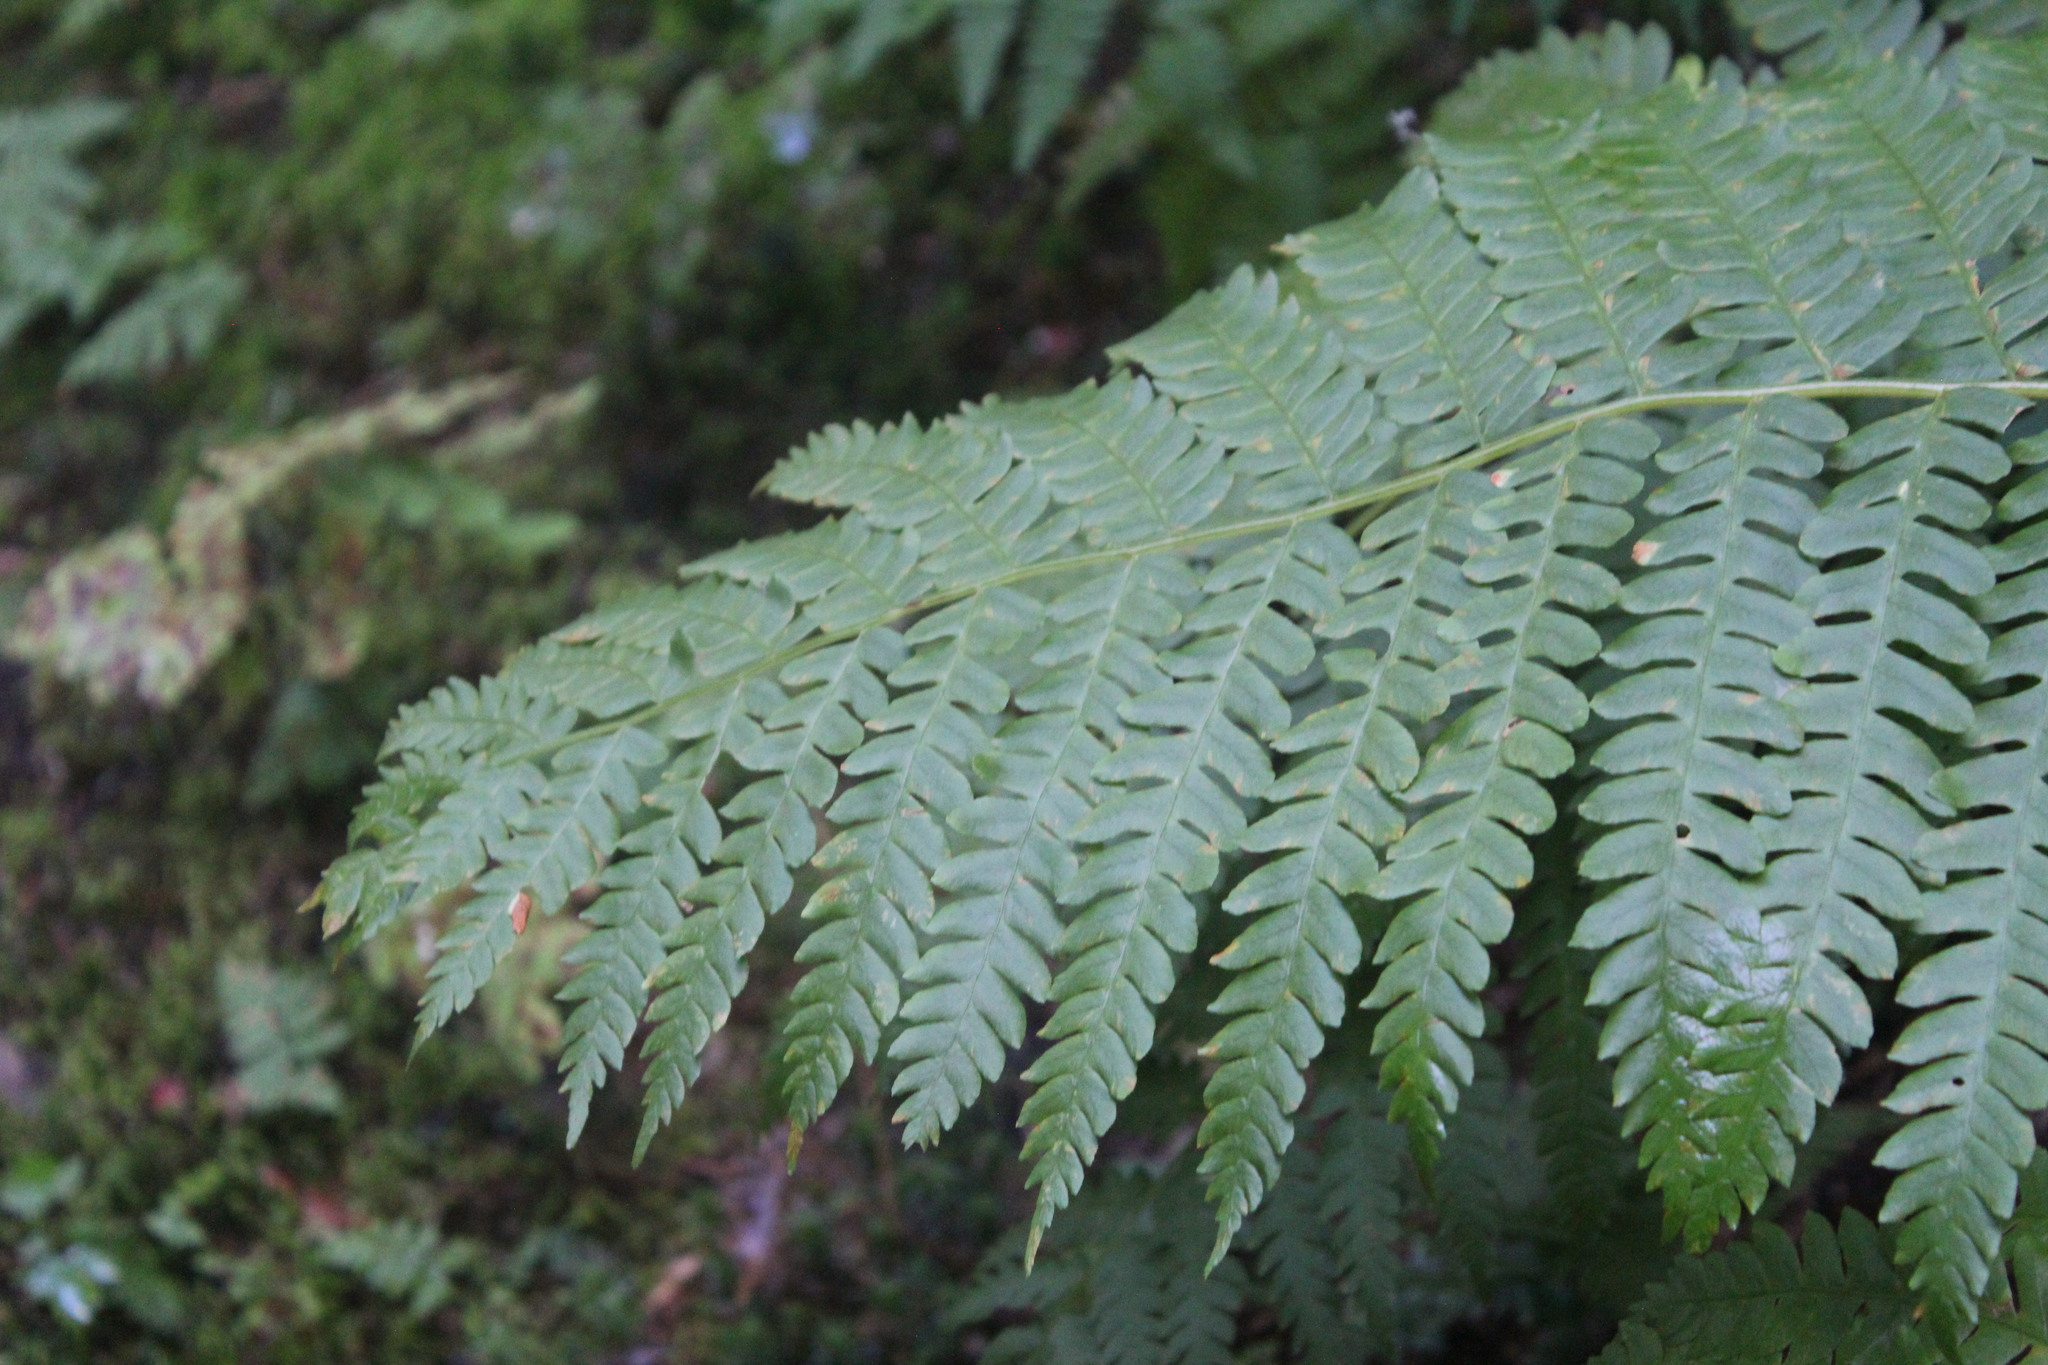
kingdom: Plantae
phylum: Tracheophyta
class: Polypodiopsida
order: Osmundales
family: Osmundaceae
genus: Osmundastrum
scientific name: Osmundastrum cinnamomeum
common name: Cinnamon fern
